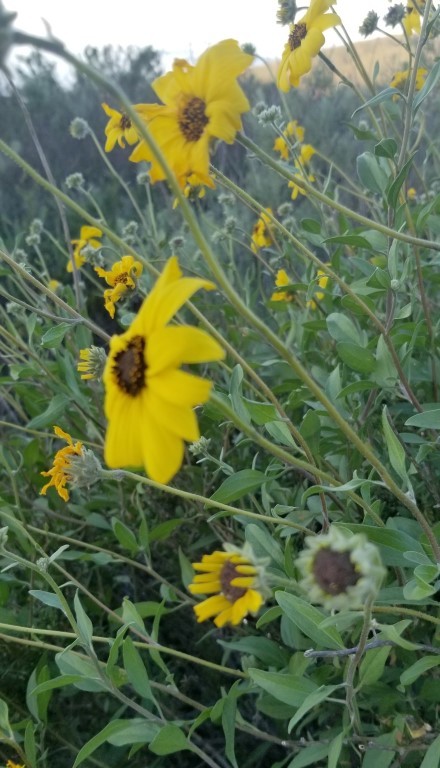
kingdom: Plantae
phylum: Tracheophyta
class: Magnoliopsida
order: Asterales
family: Asteraceae
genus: Encelia
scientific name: Encelia californica
